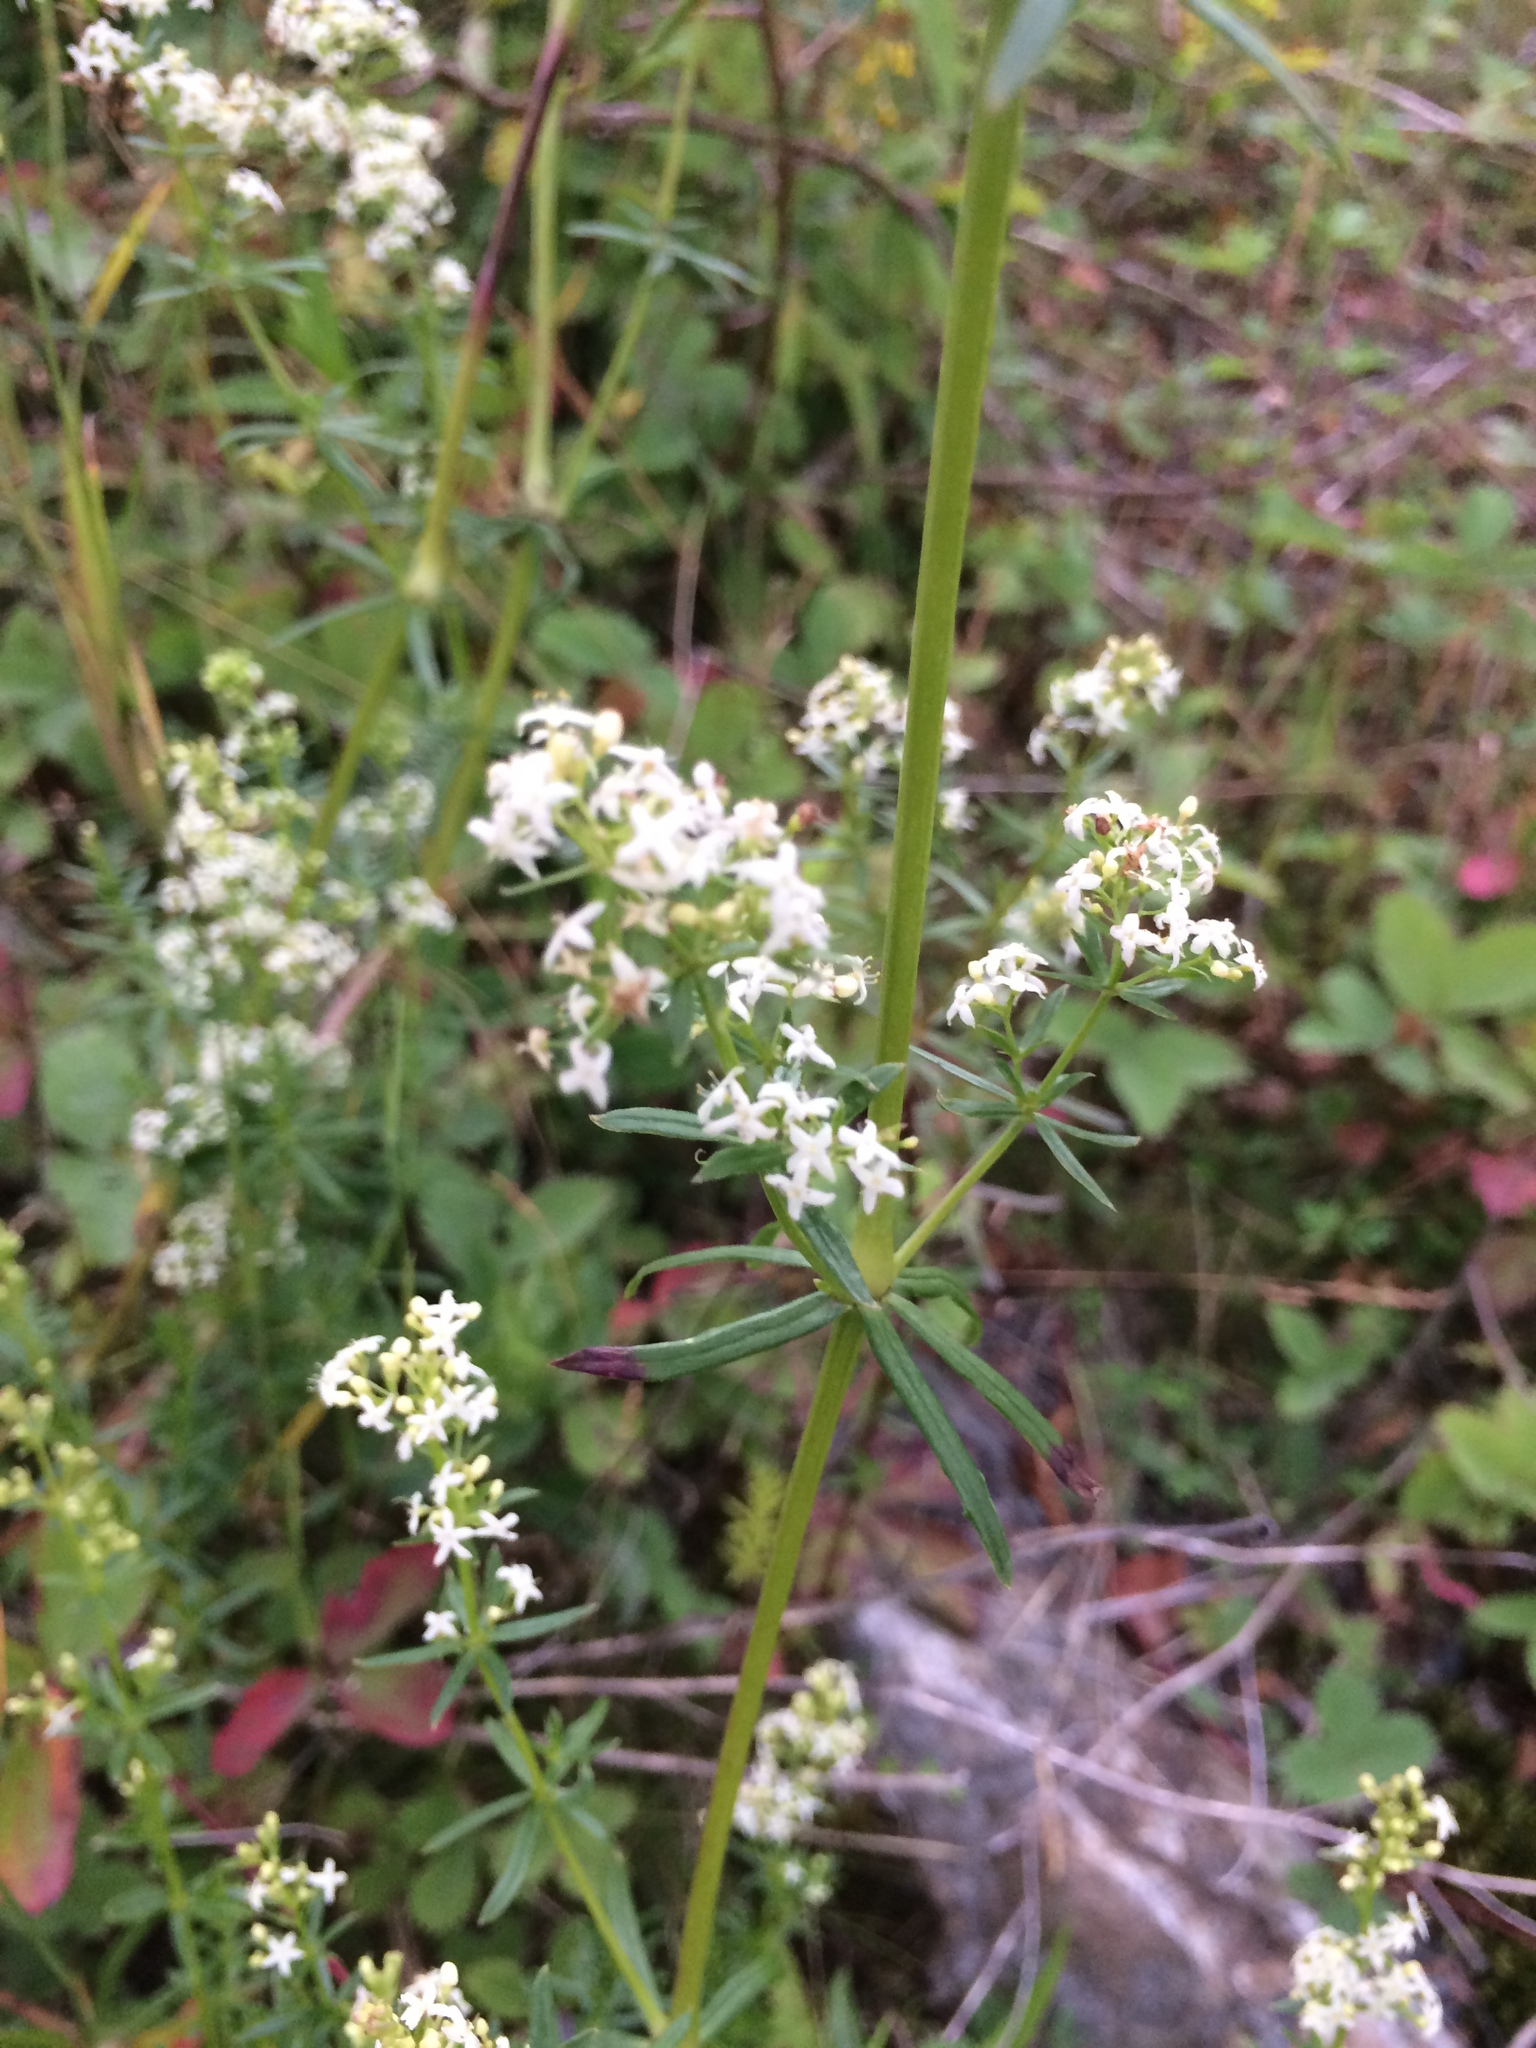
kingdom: Plantae
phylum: Tracheophyta
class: Magnoliopsida
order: Gentianales
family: Rubiaceae
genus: Galium
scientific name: Galium mollugo
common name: Hedge bedstraw
